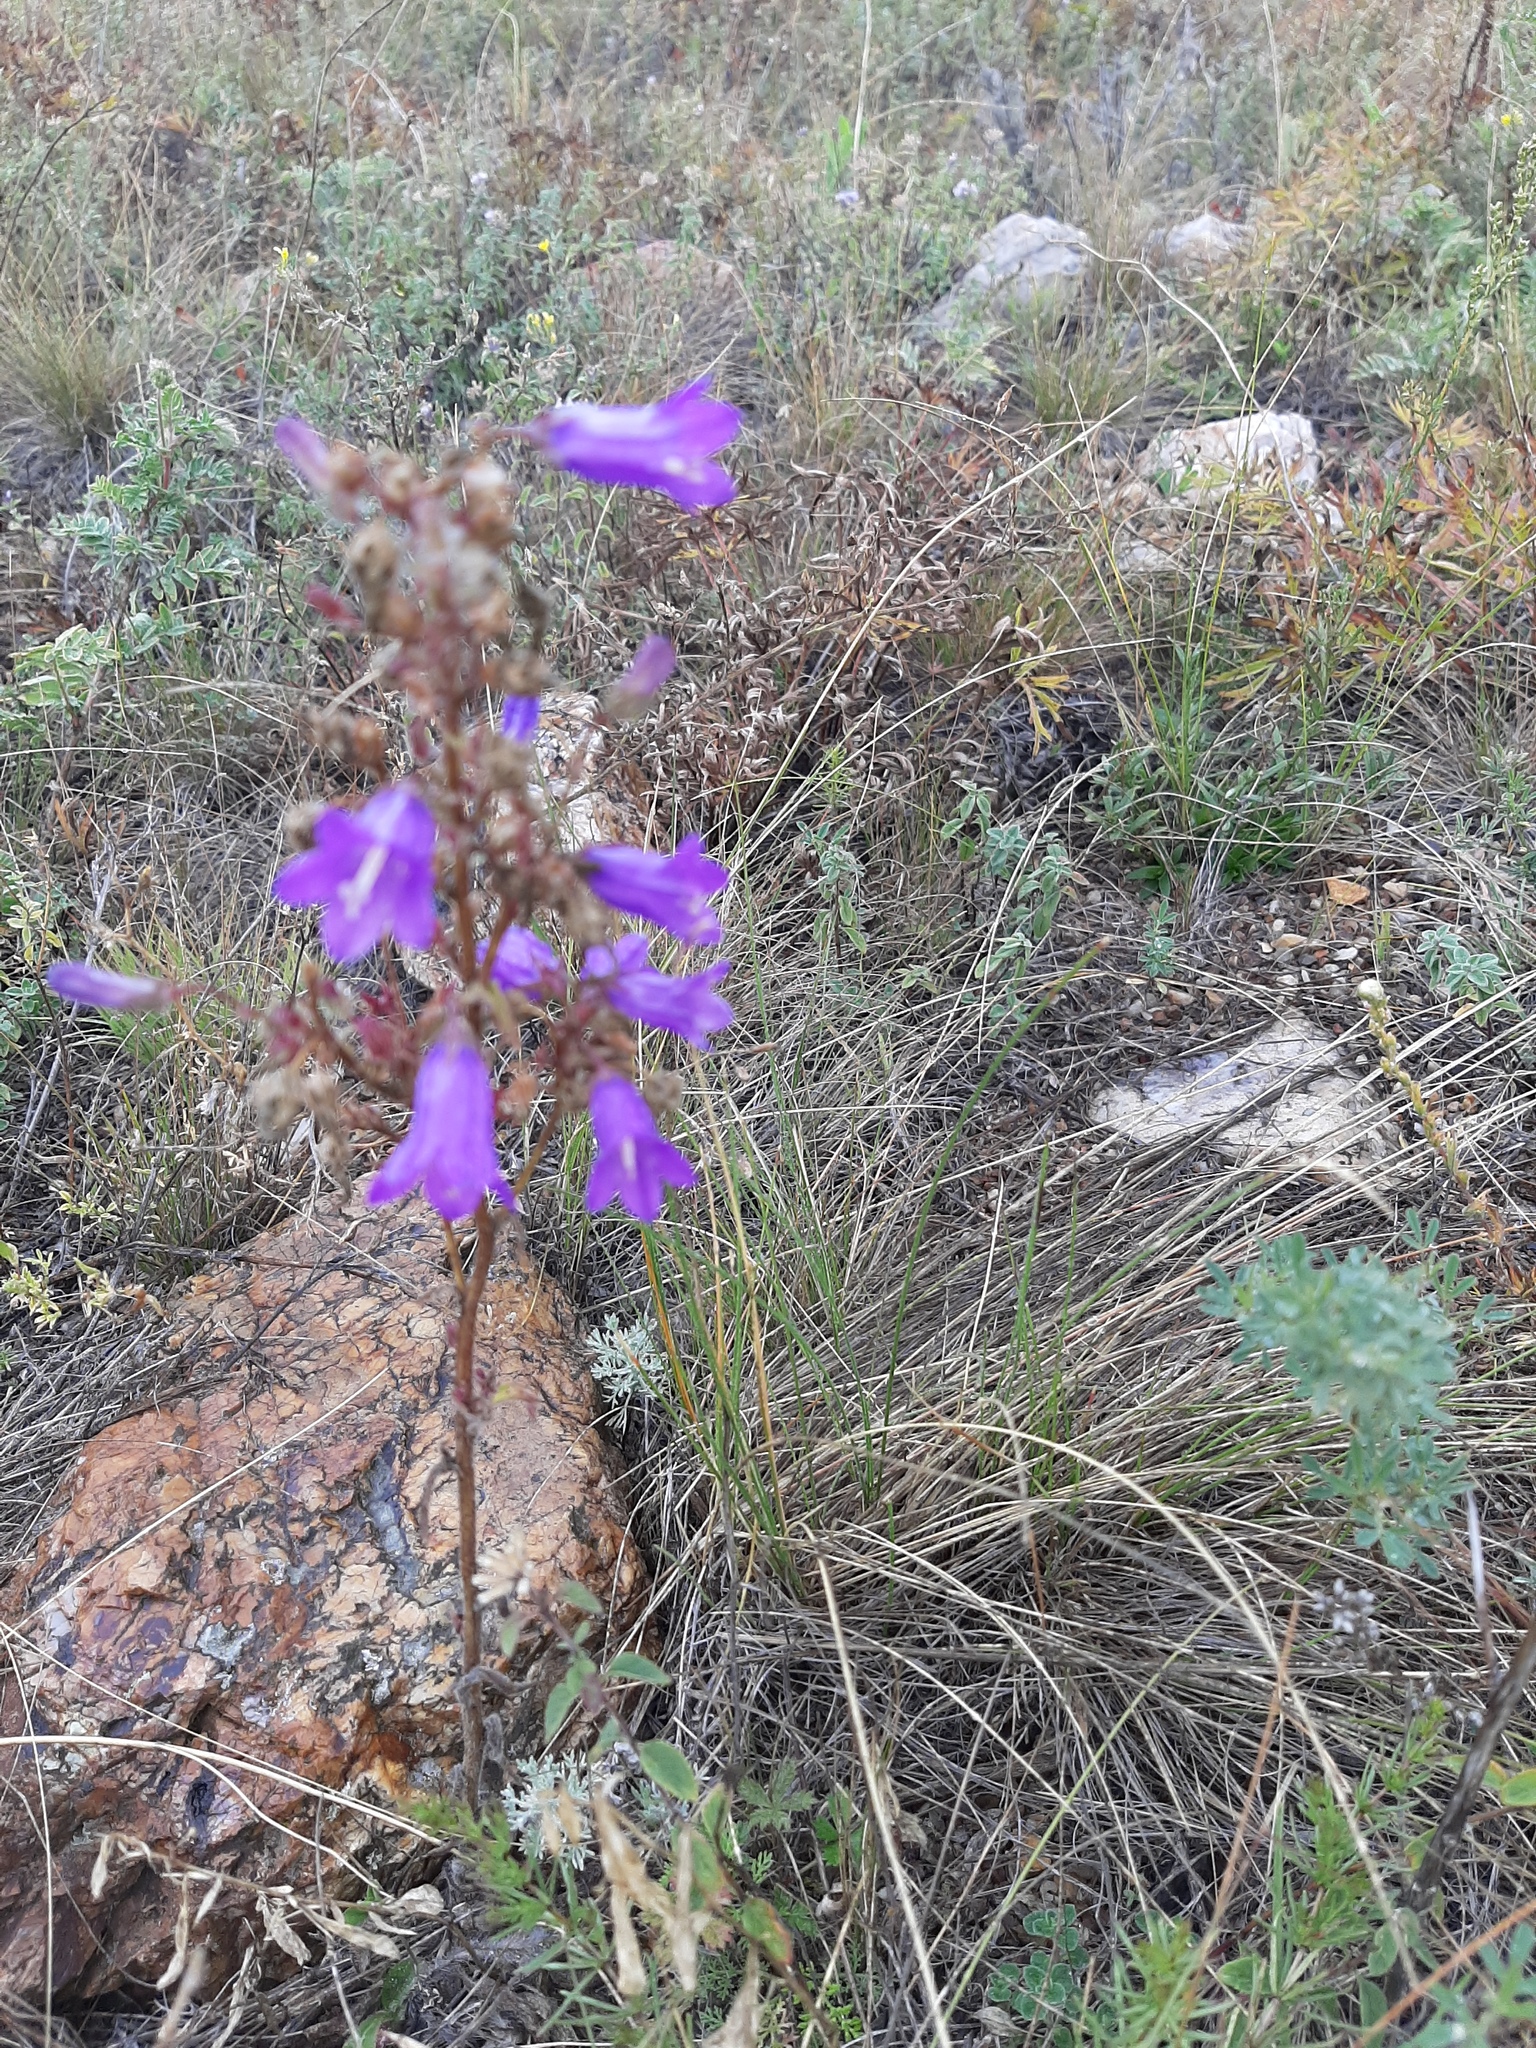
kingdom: Plantae
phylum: Tracheophyta
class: Magnoliopsida
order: Asterales
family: Campanulaceae
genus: Campanula
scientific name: Campanula sibirica
